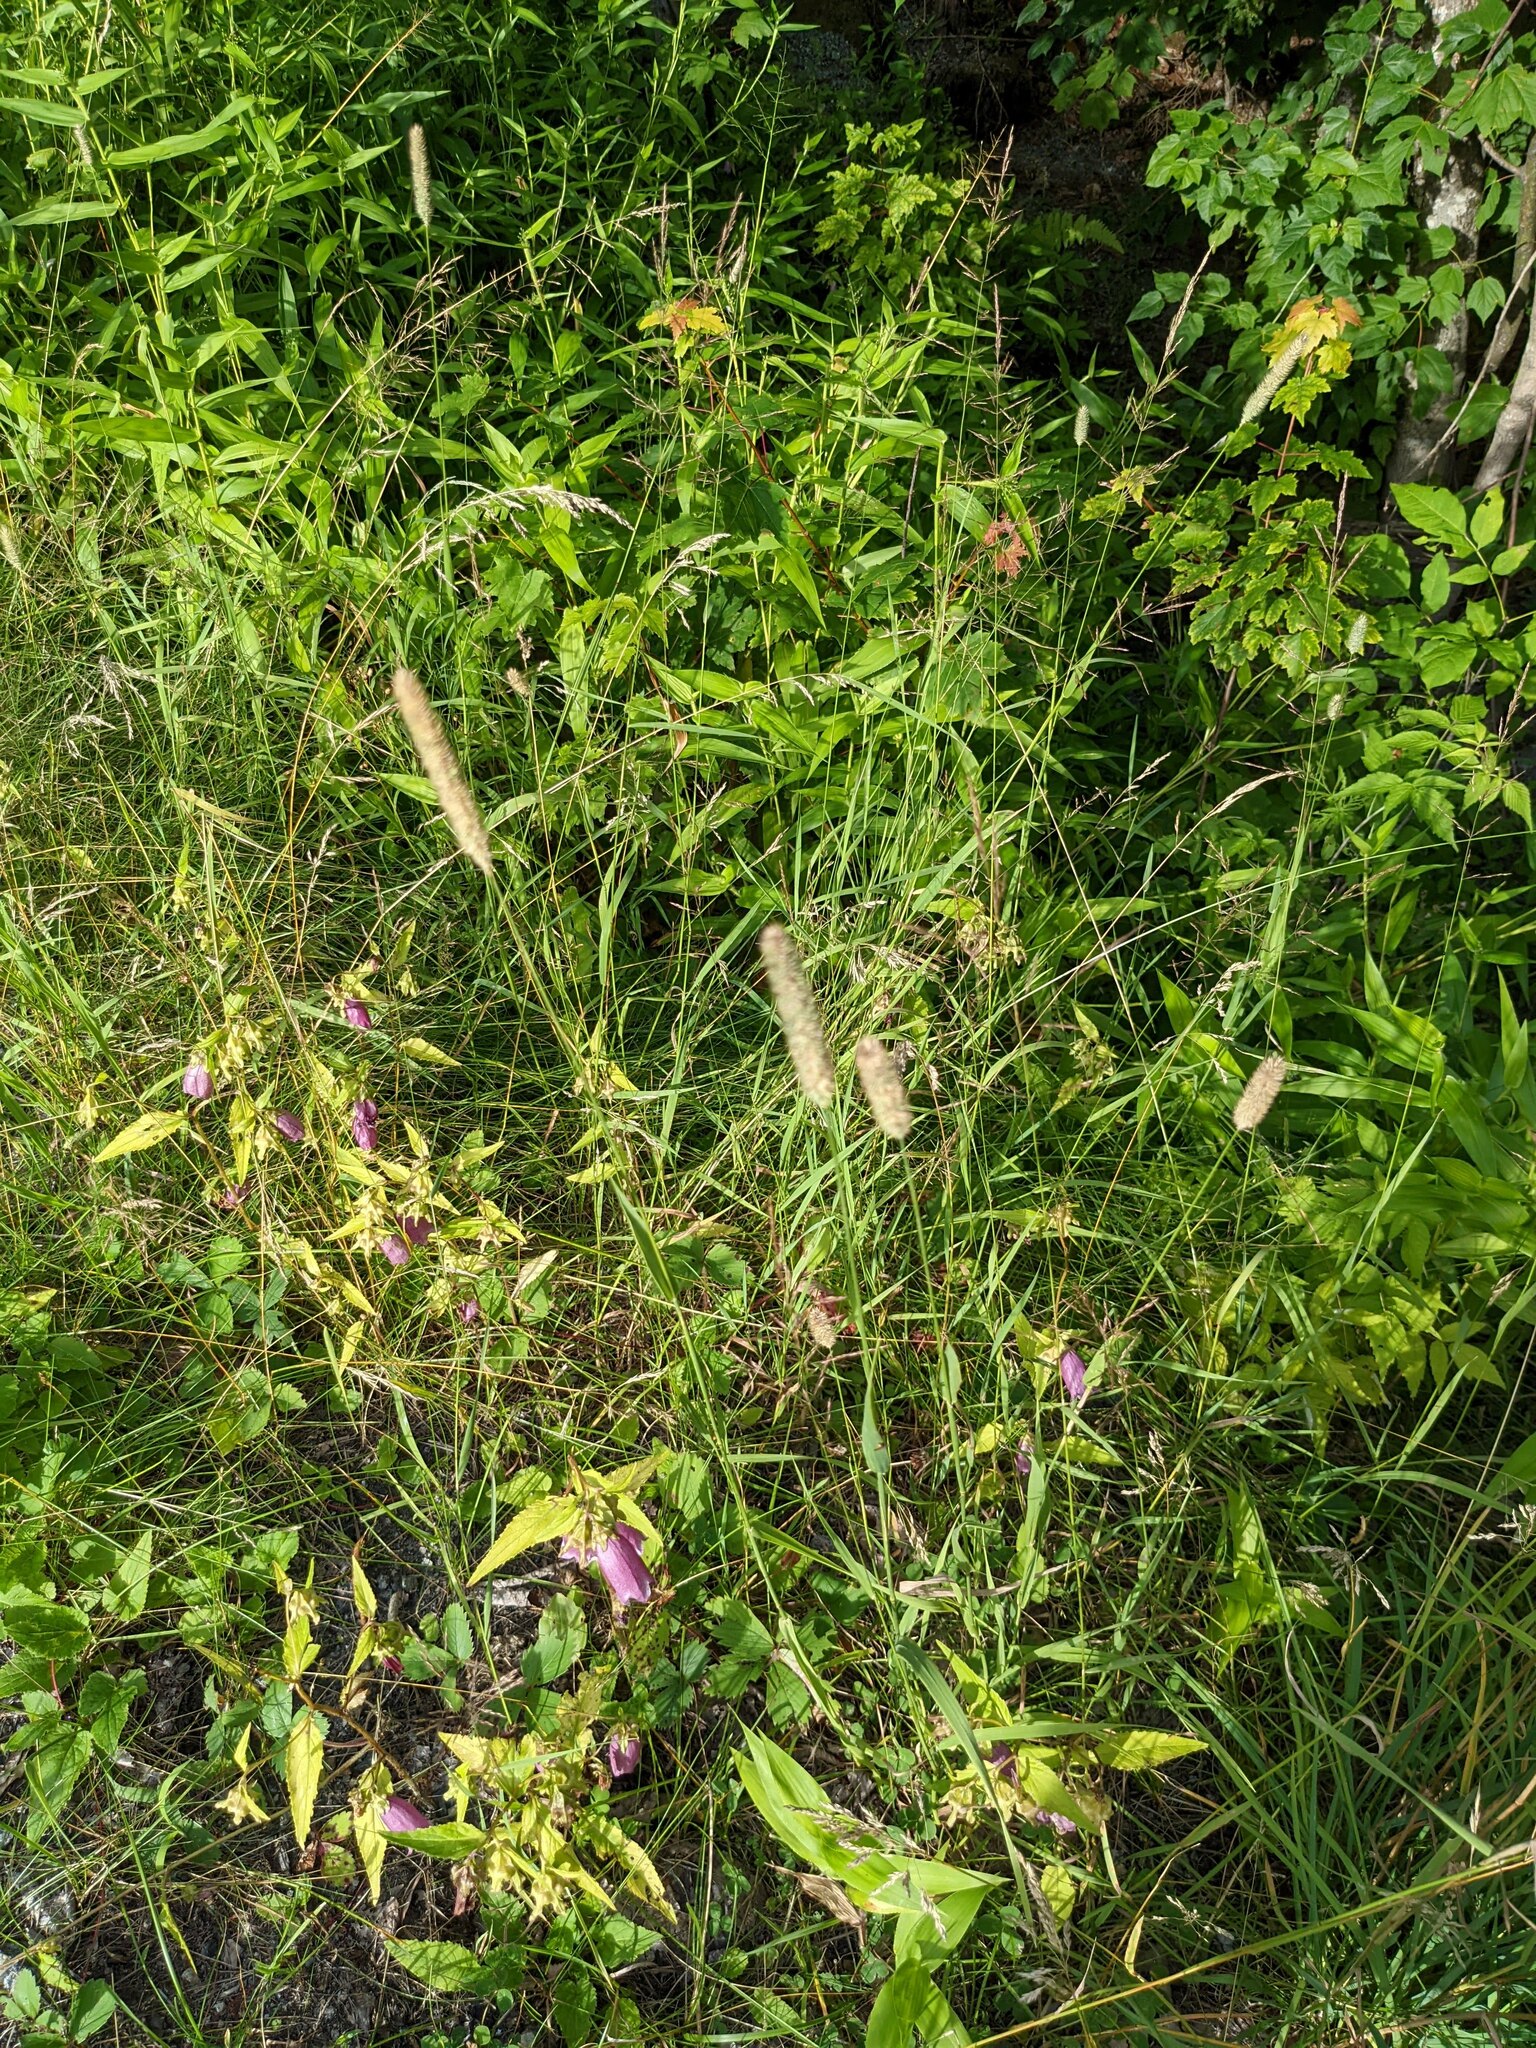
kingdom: Plantae
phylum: Tracheophyta
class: Liliopsida
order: Poales
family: Poaceae
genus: Phleum
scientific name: Phleum pratense
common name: Timothy grass
